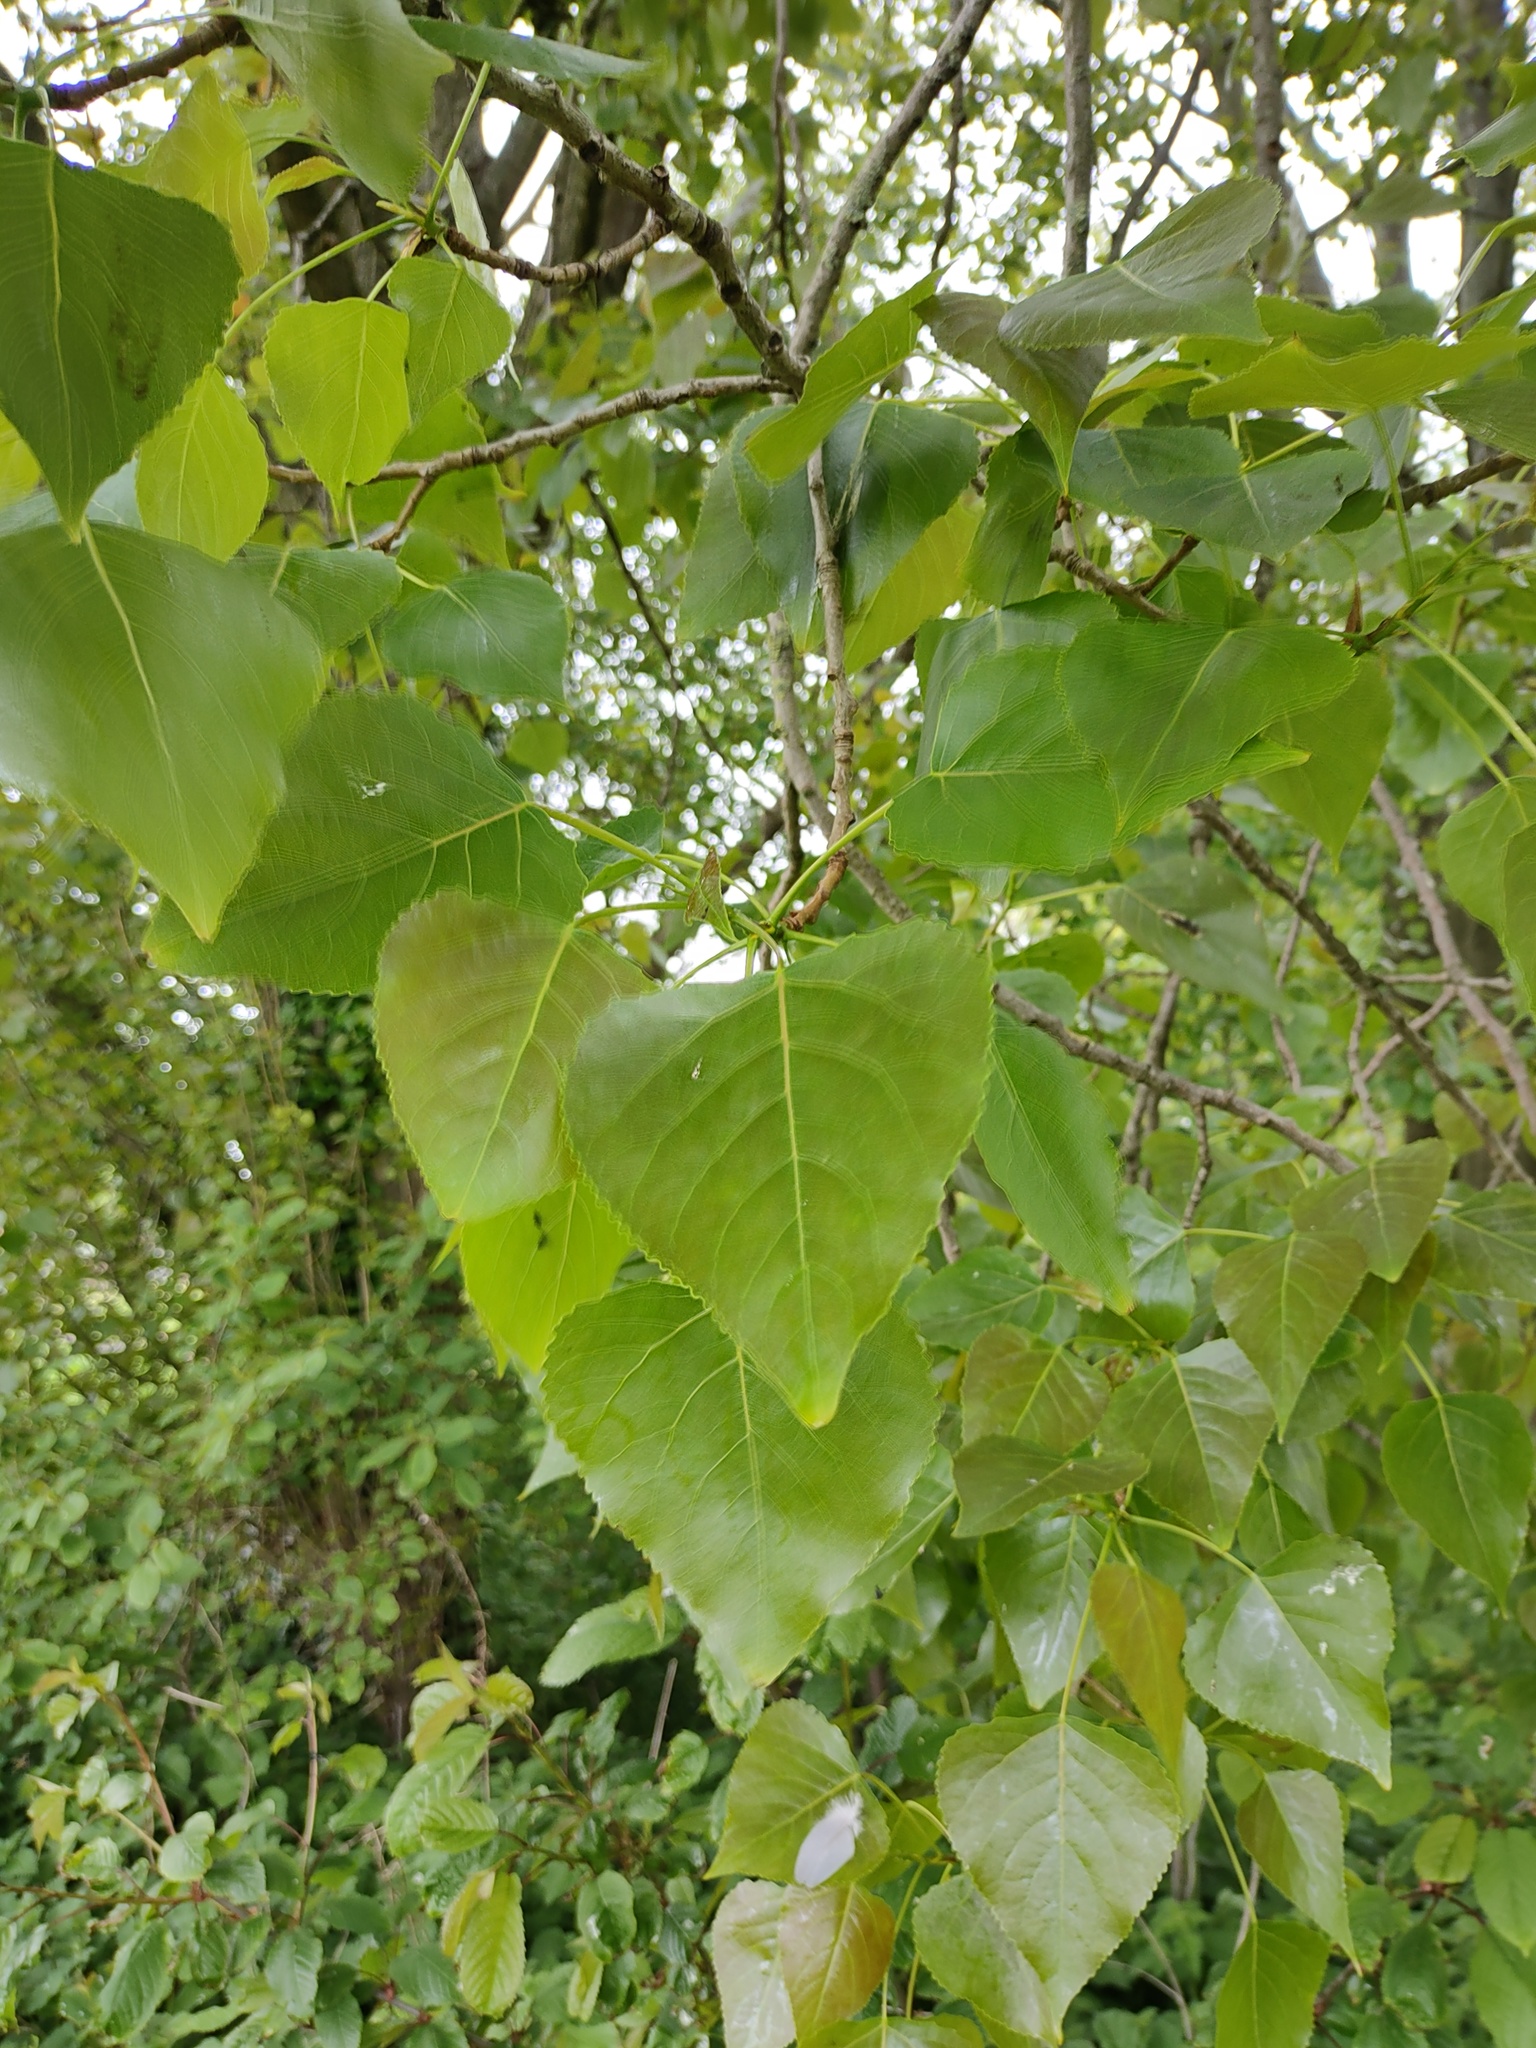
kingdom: Plantae
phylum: Tracheophyta
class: Magnoliopsida
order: Malpighiales
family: Salicaceae
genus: Populus
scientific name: Populus nigra
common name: Black poplar
